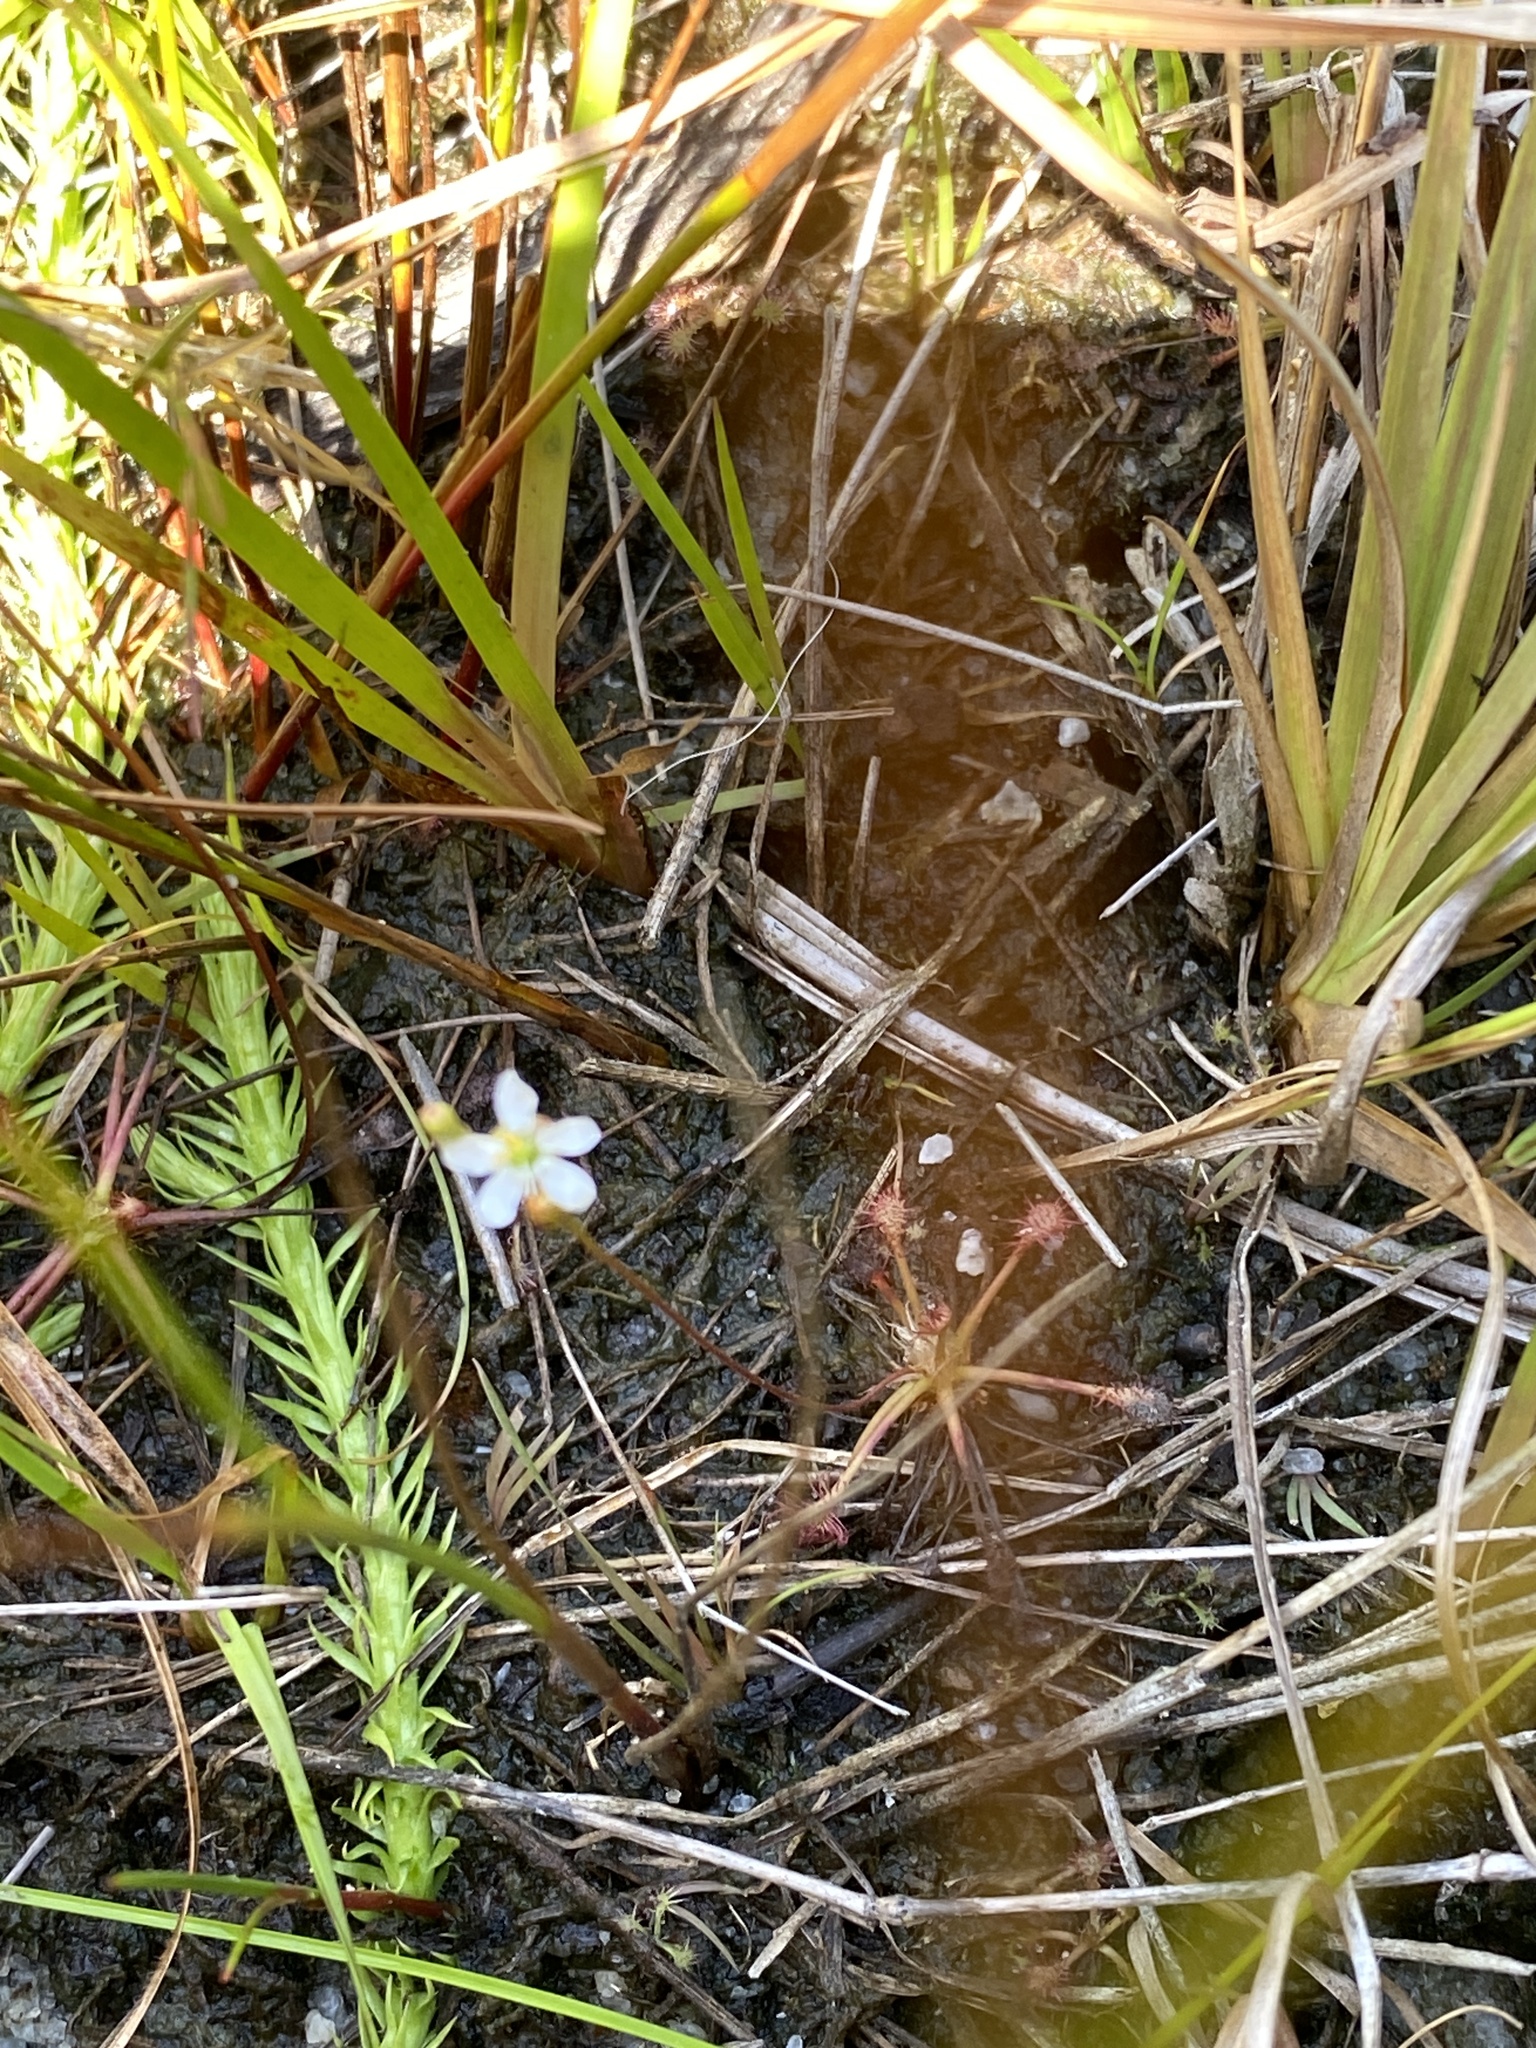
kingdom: Plantae
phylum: Tracheophyta
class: Magnoliopsida
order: Caryophyllales
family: Droseraceae
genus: Drosera
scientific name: Drosera intermedia
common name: Oblong-leaved sundew
